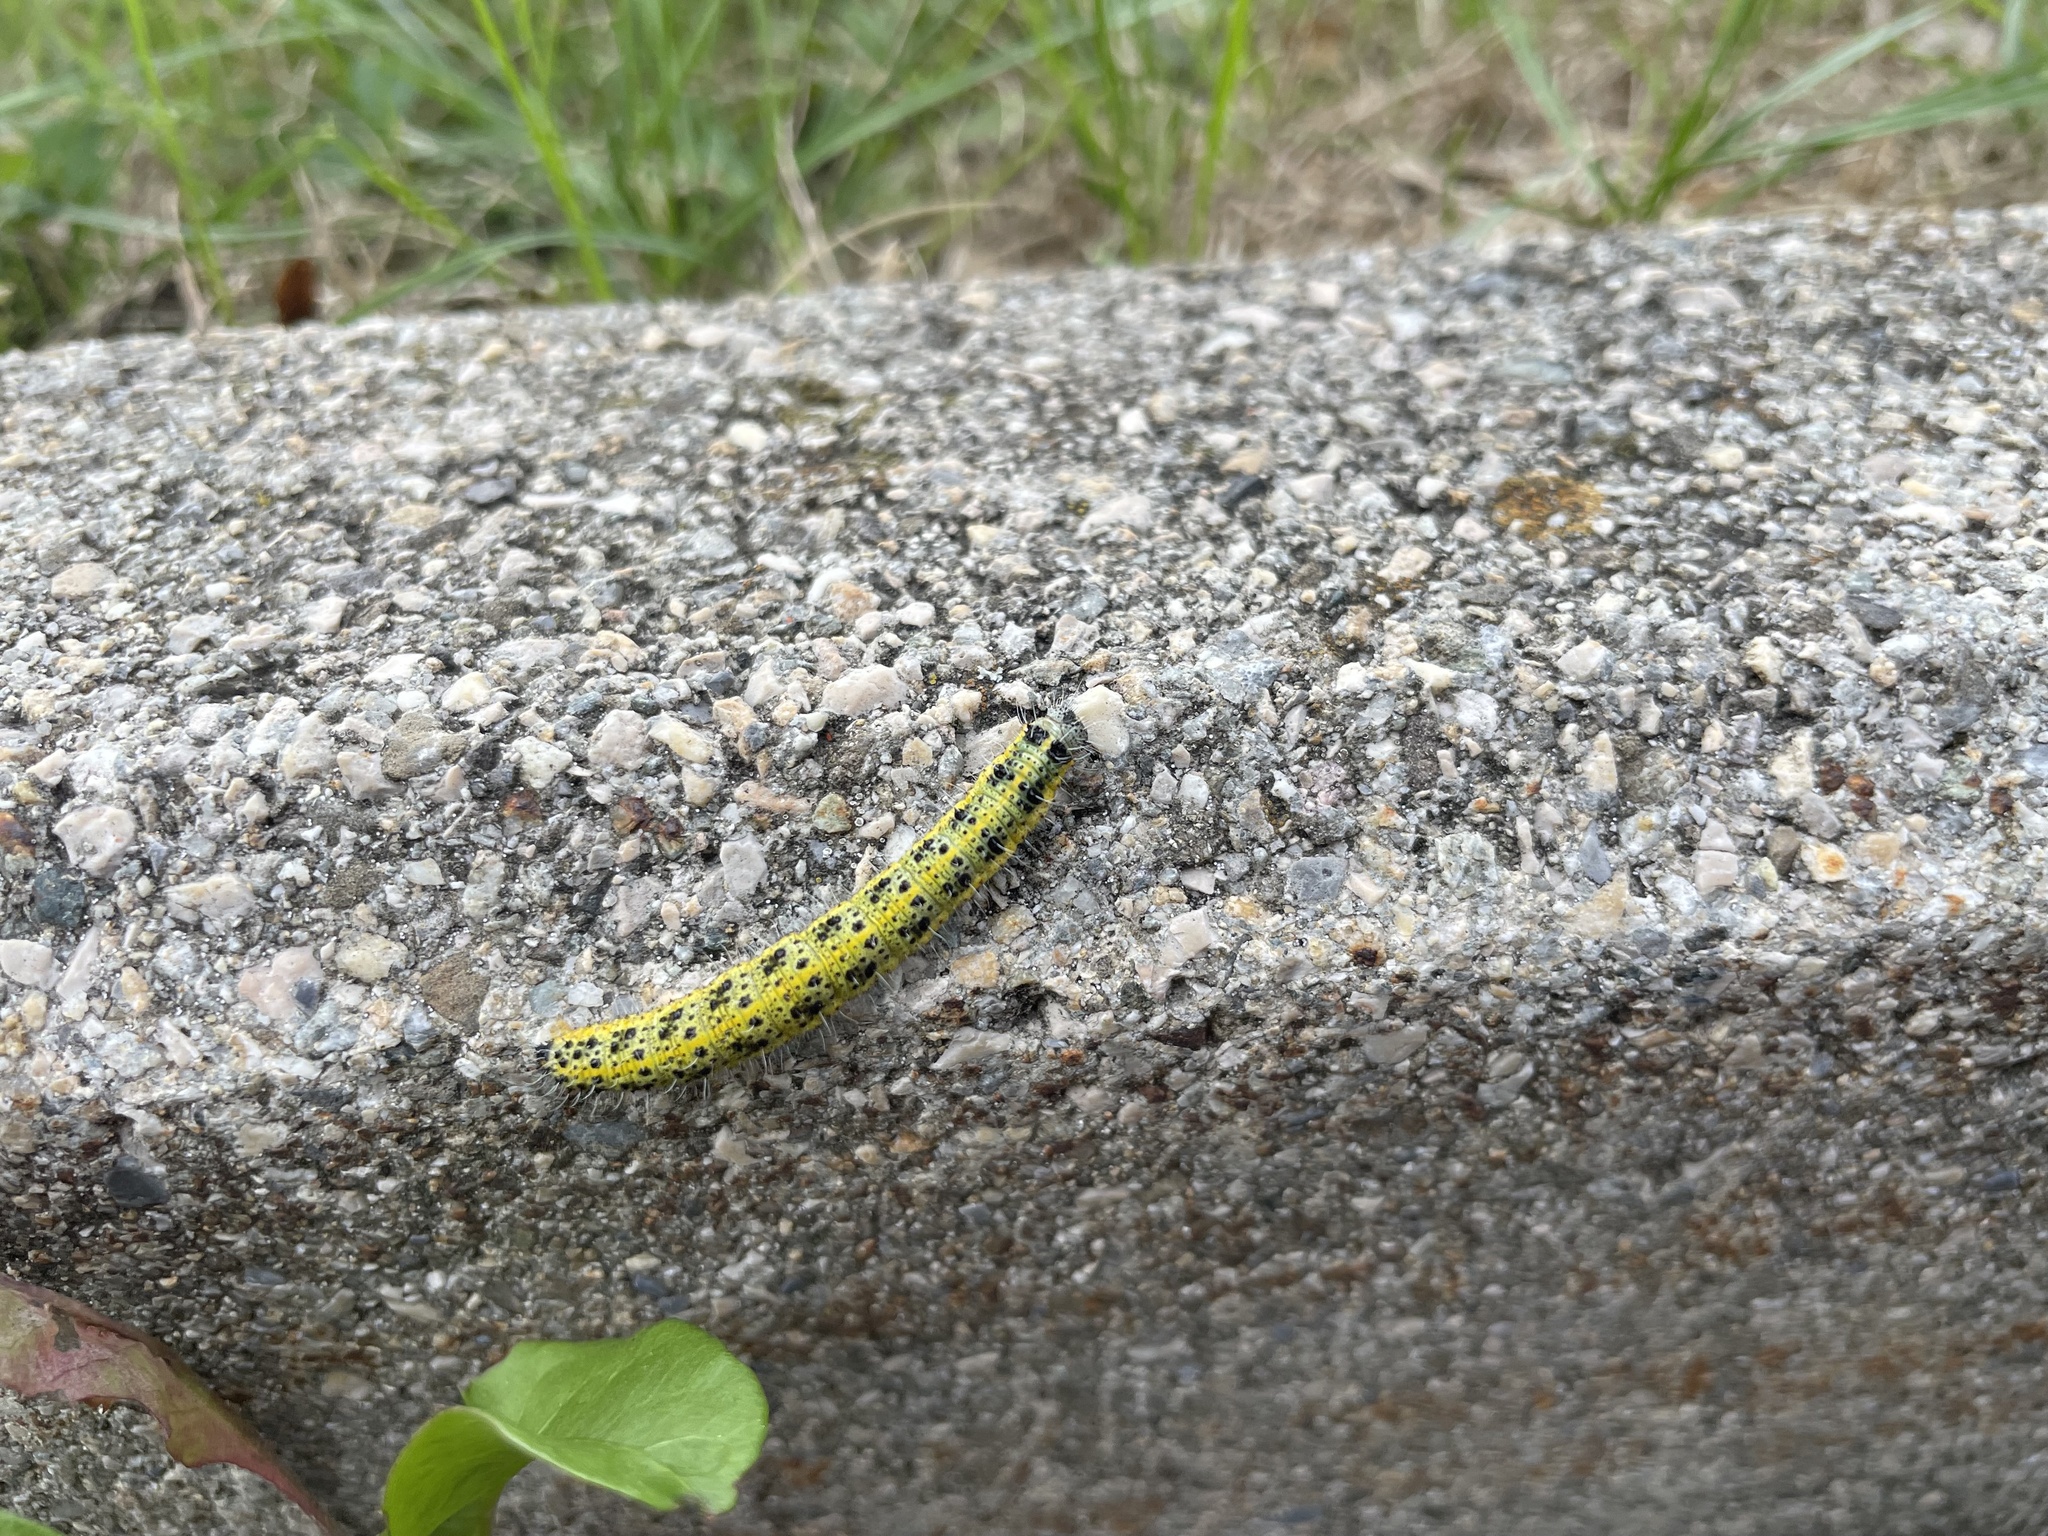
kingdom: Animalia
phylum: Arthropoda
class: Insecta
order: Lepidoptera
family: Pieridae
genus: Pieris
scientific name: Pieris brassicae
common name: Large white
